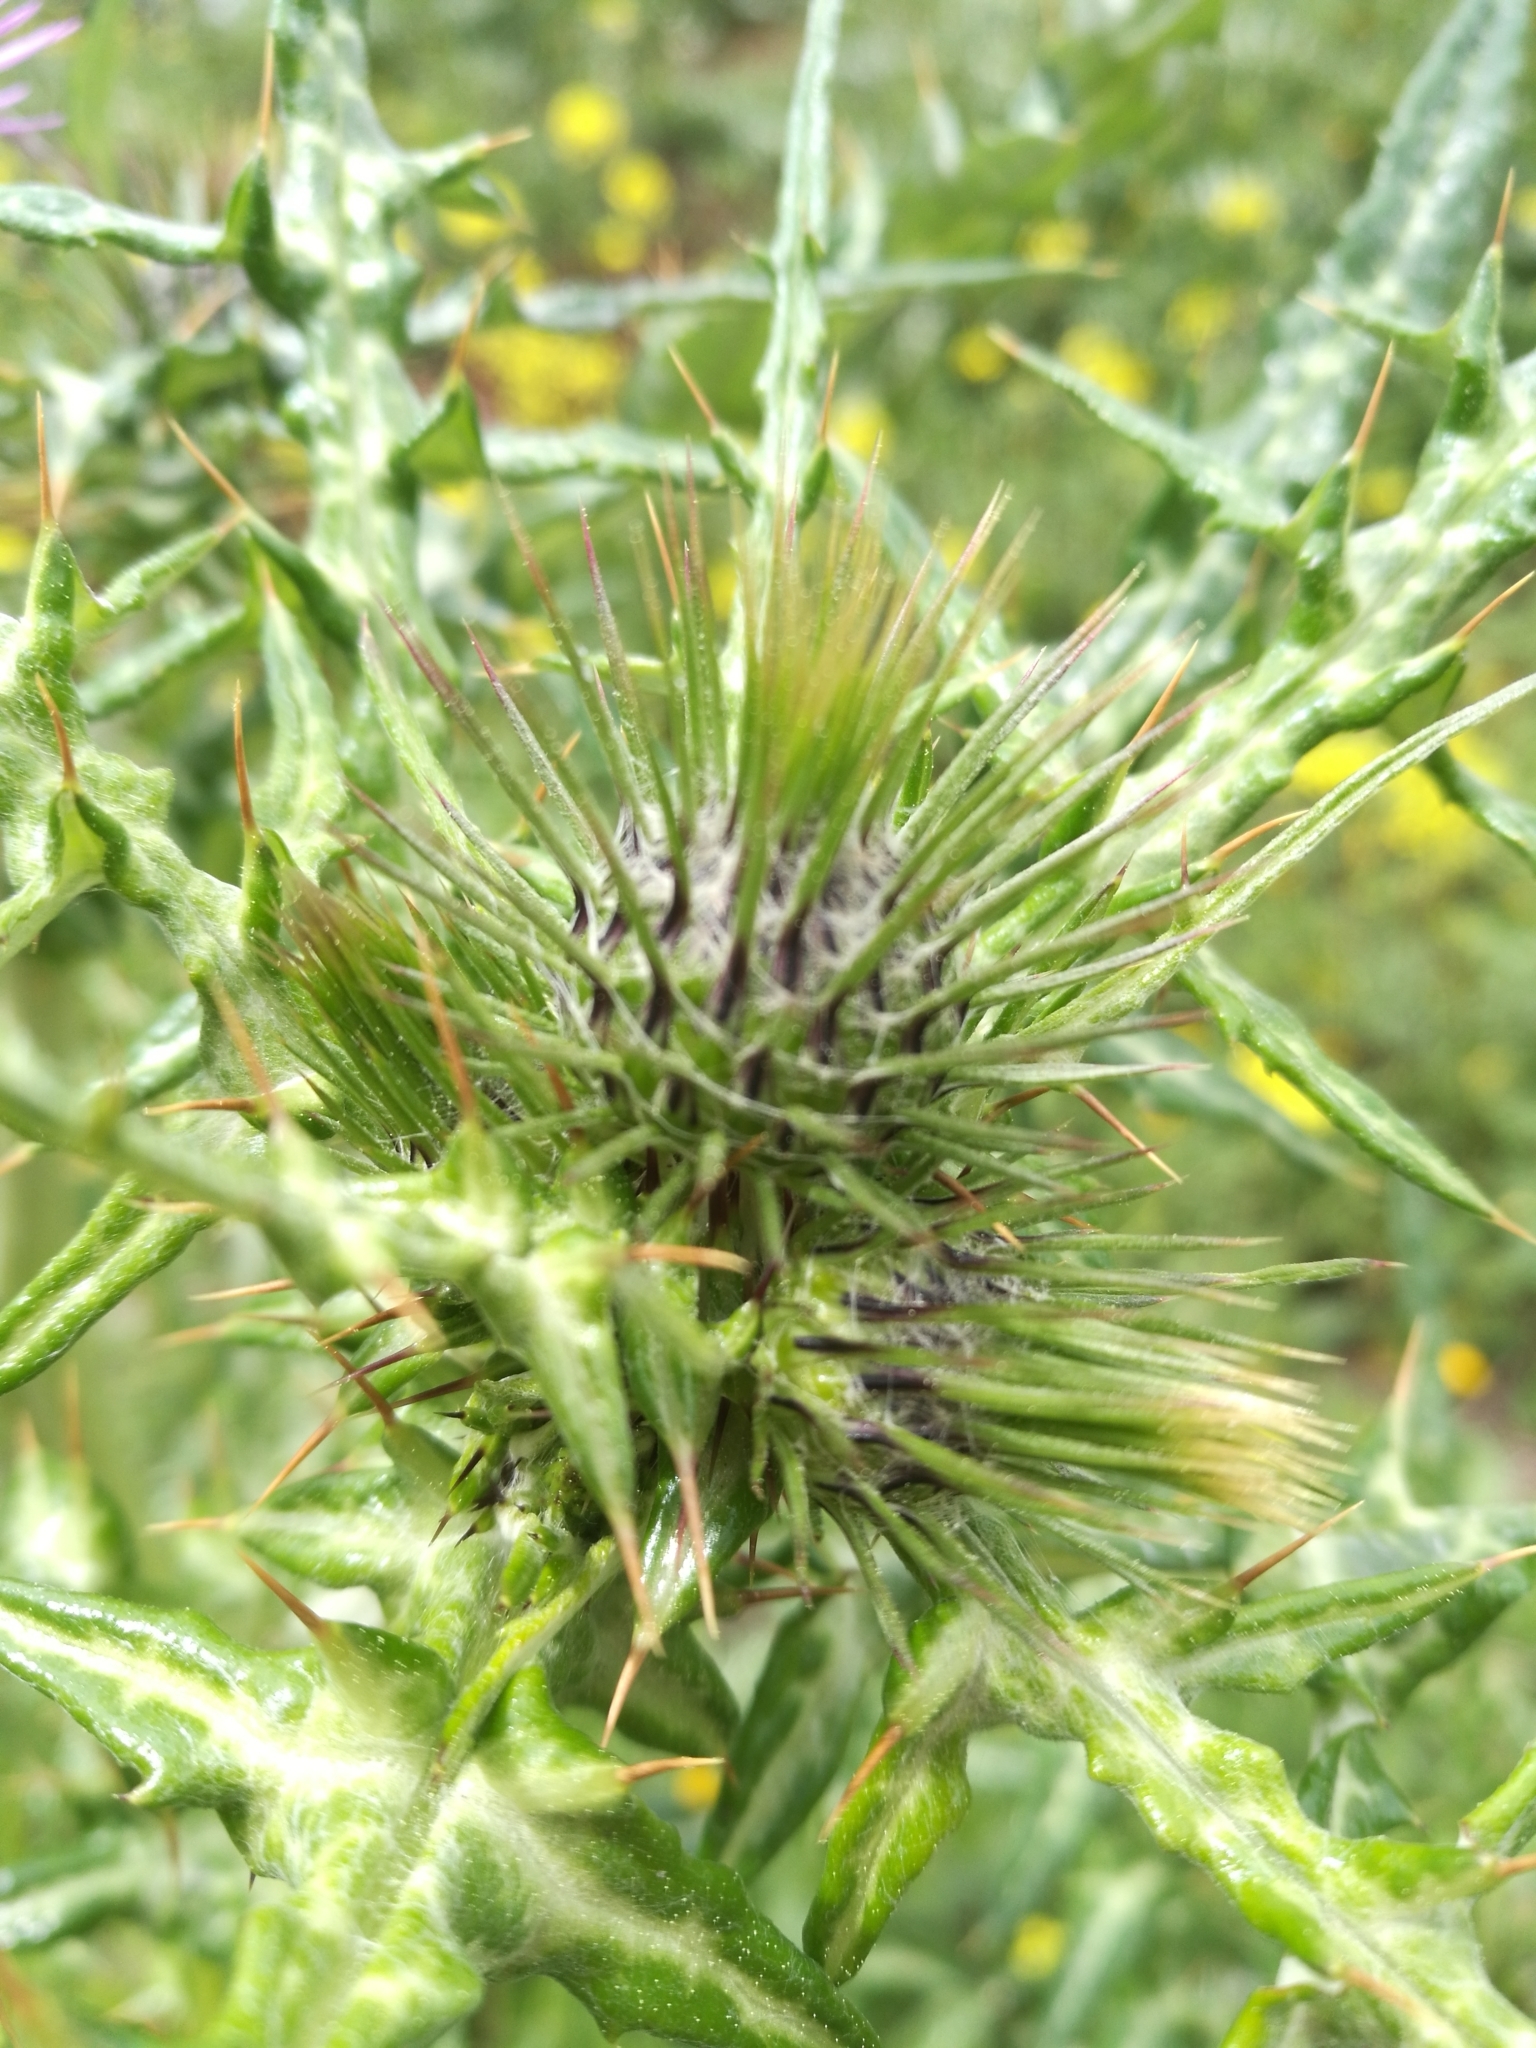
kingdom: Plantae
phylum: Tracheophyta
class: Magnoliopsida
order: Asterales
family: Asteraceae
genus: Galactites
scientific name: Galactites tomentosa
